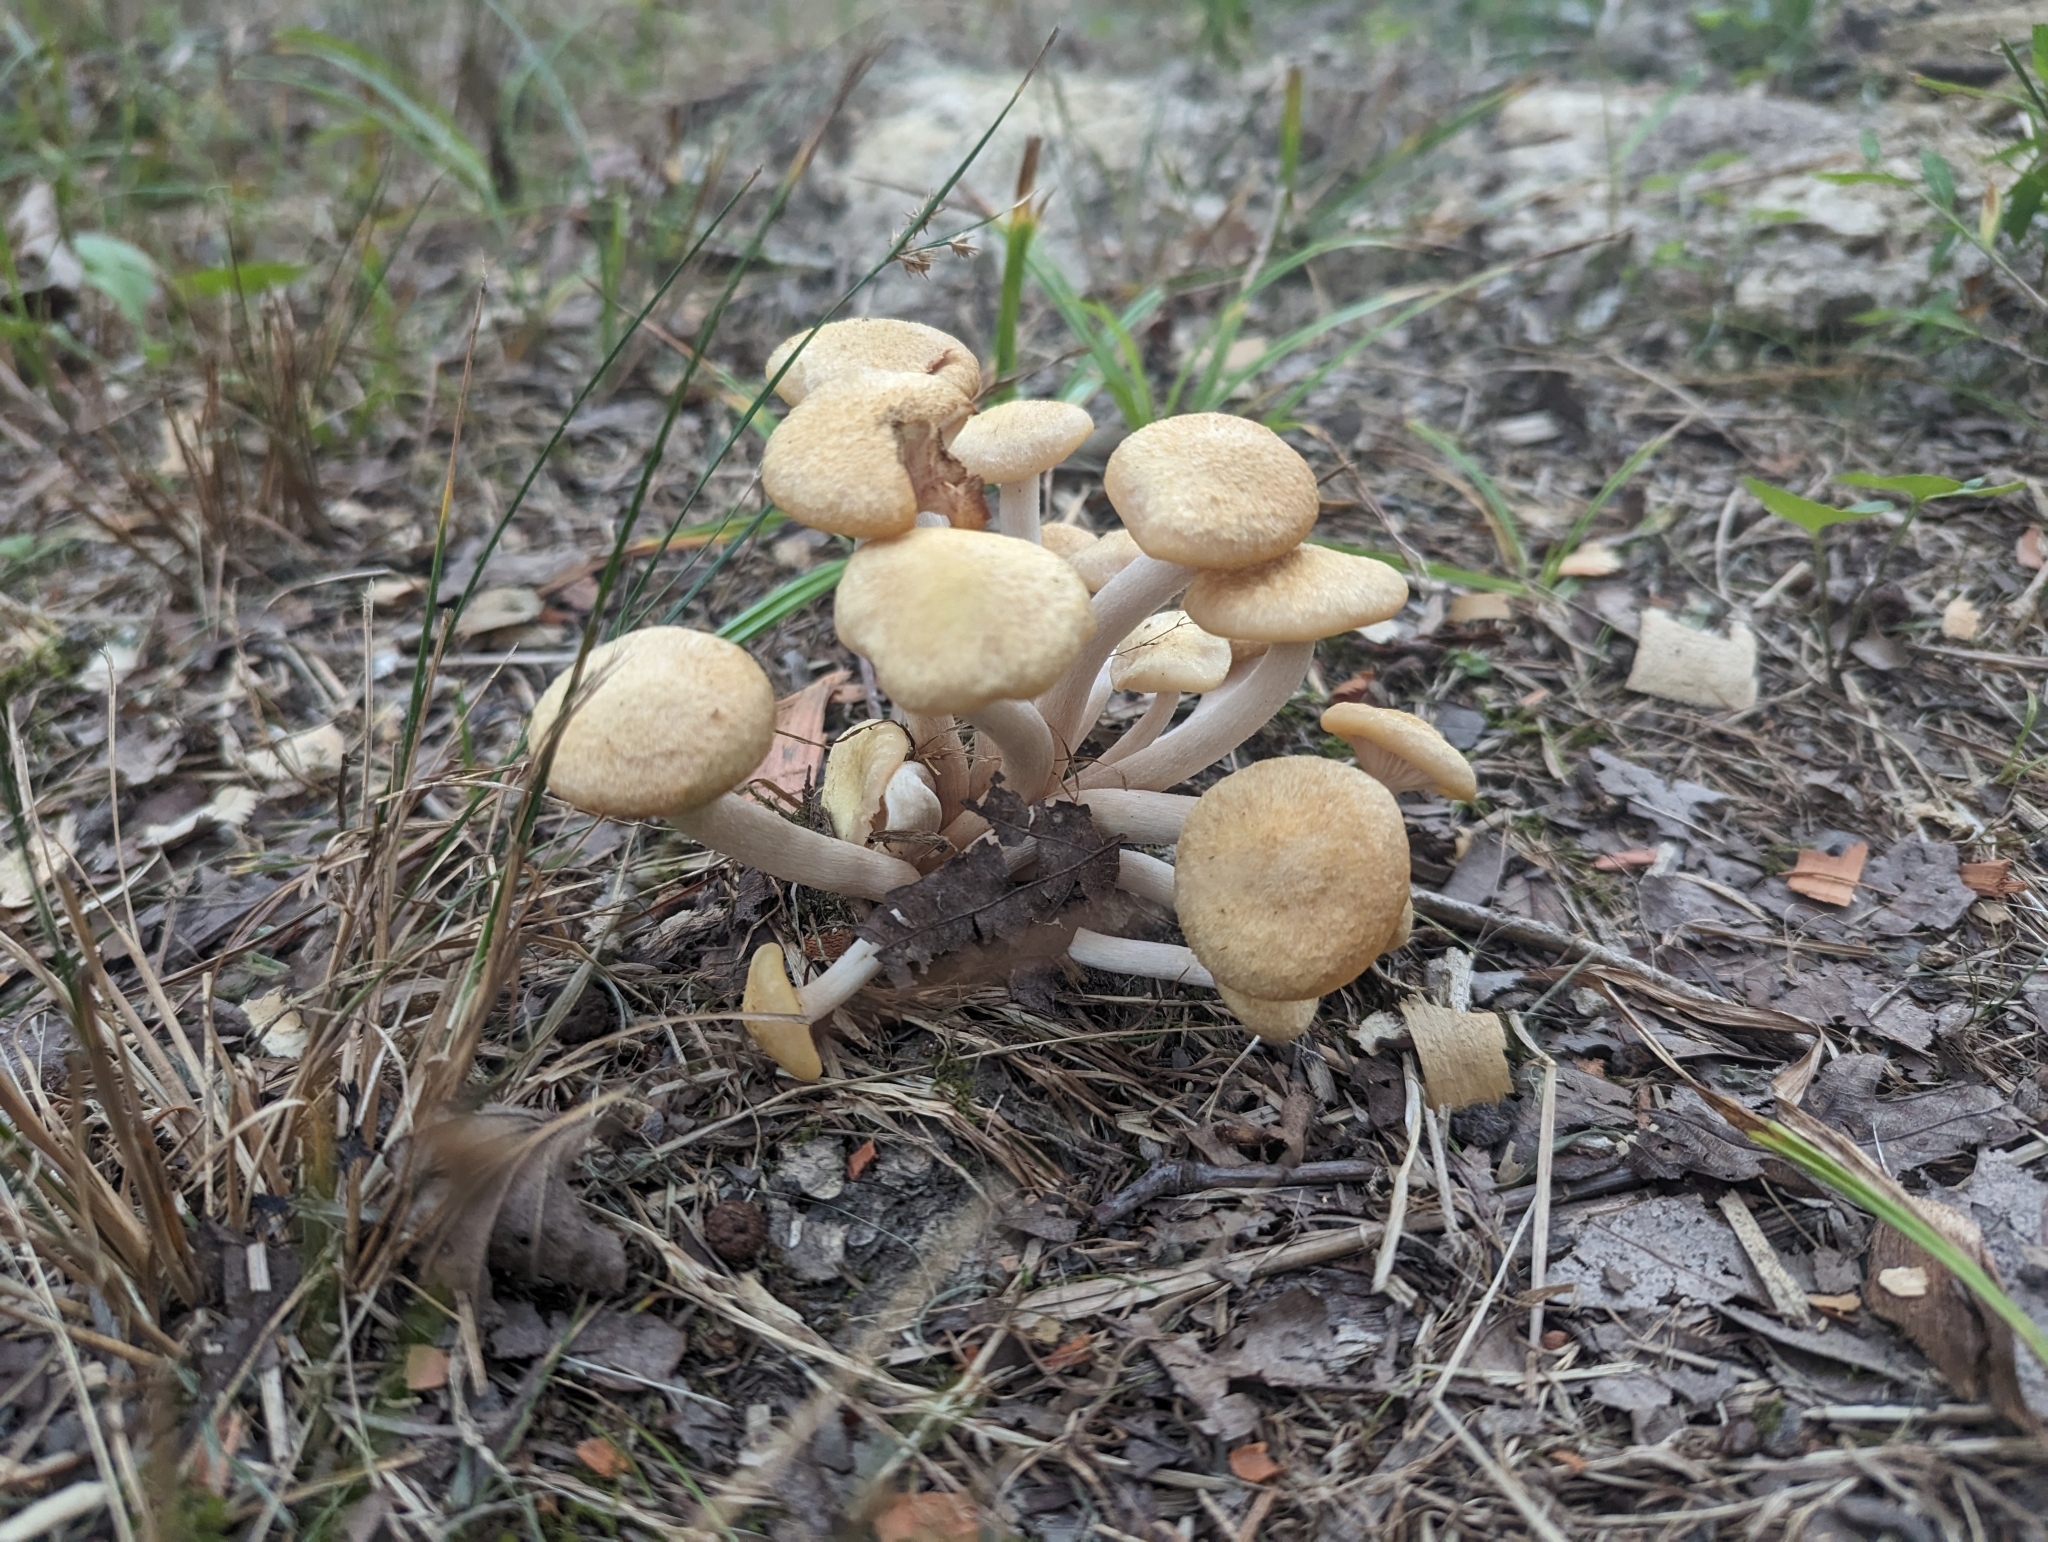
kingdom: Fungi
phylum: Basidiomycota
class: Agaricomycetes
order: Agaricales
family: Physalacriaceae
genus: Desarmillaria
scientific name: Desarmillaria caespitosa
